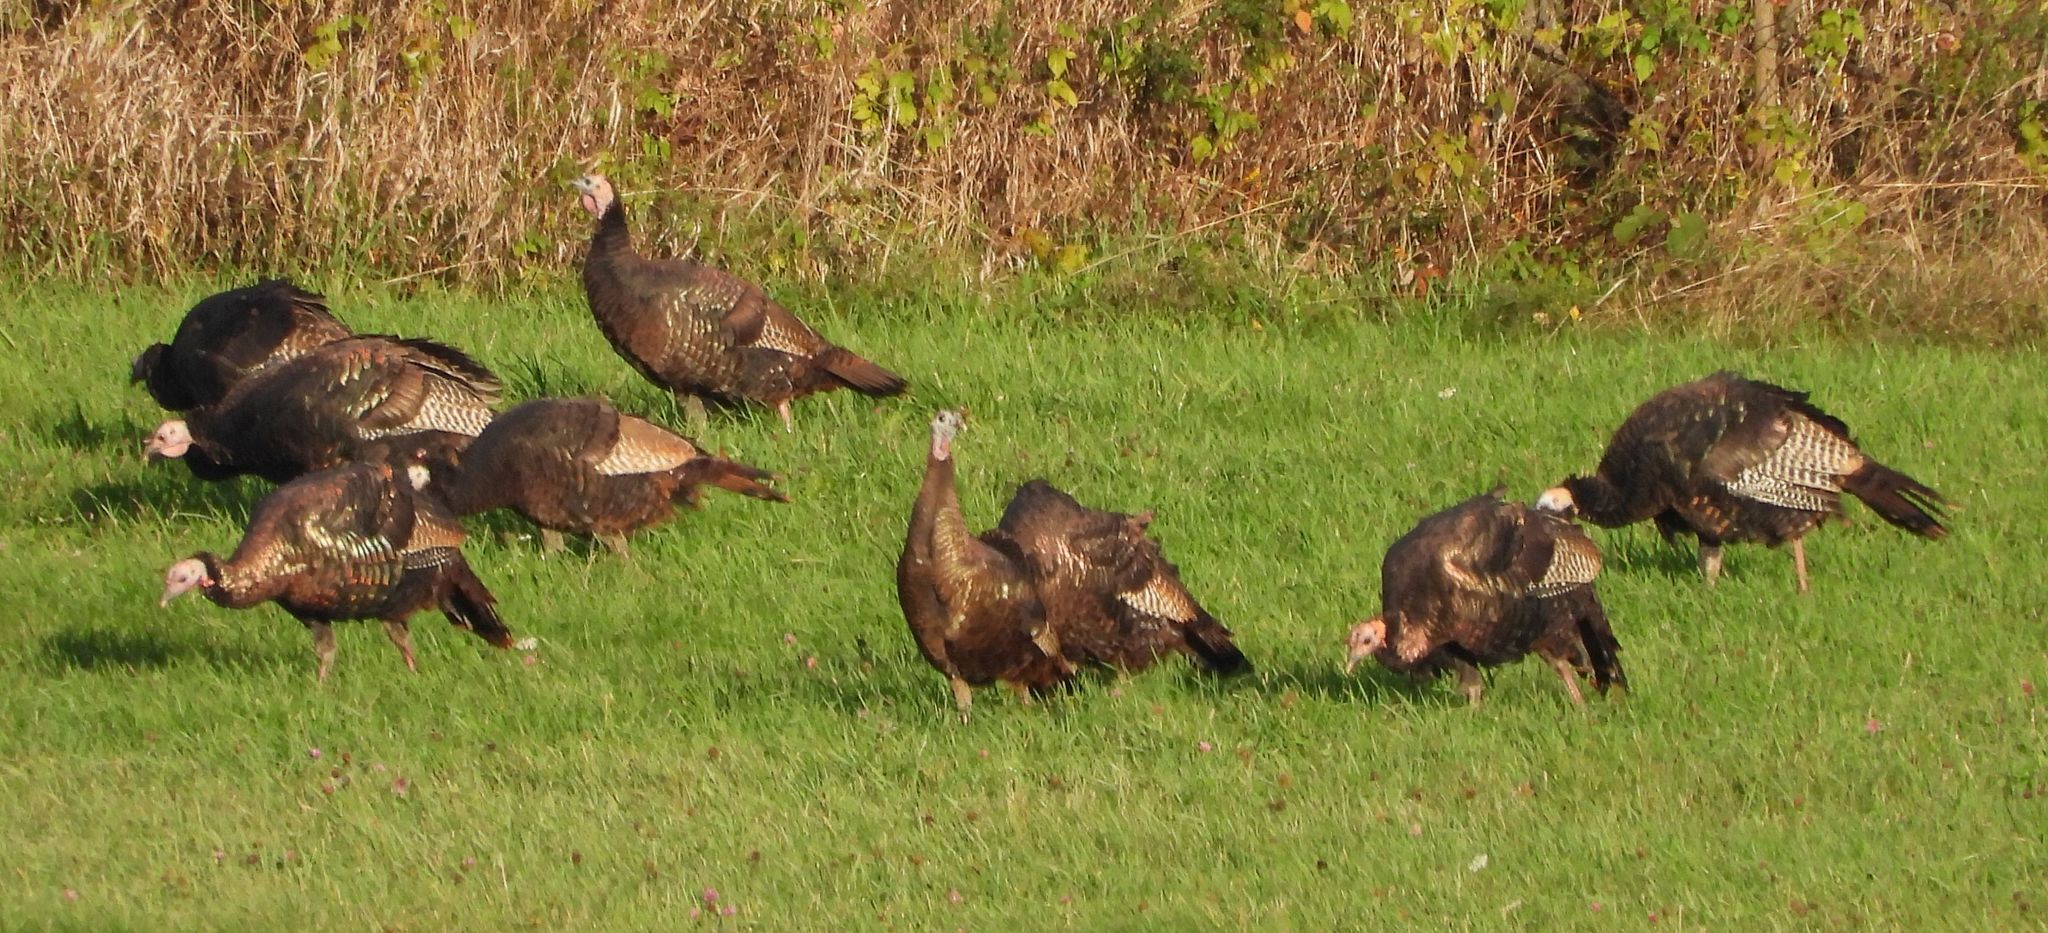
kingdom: Animalia
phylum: Chordata
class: Aves
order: Galliformes
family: Phasianidae
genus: Meleagris
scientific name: Meleagris gallopavo
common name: Wild turkey
